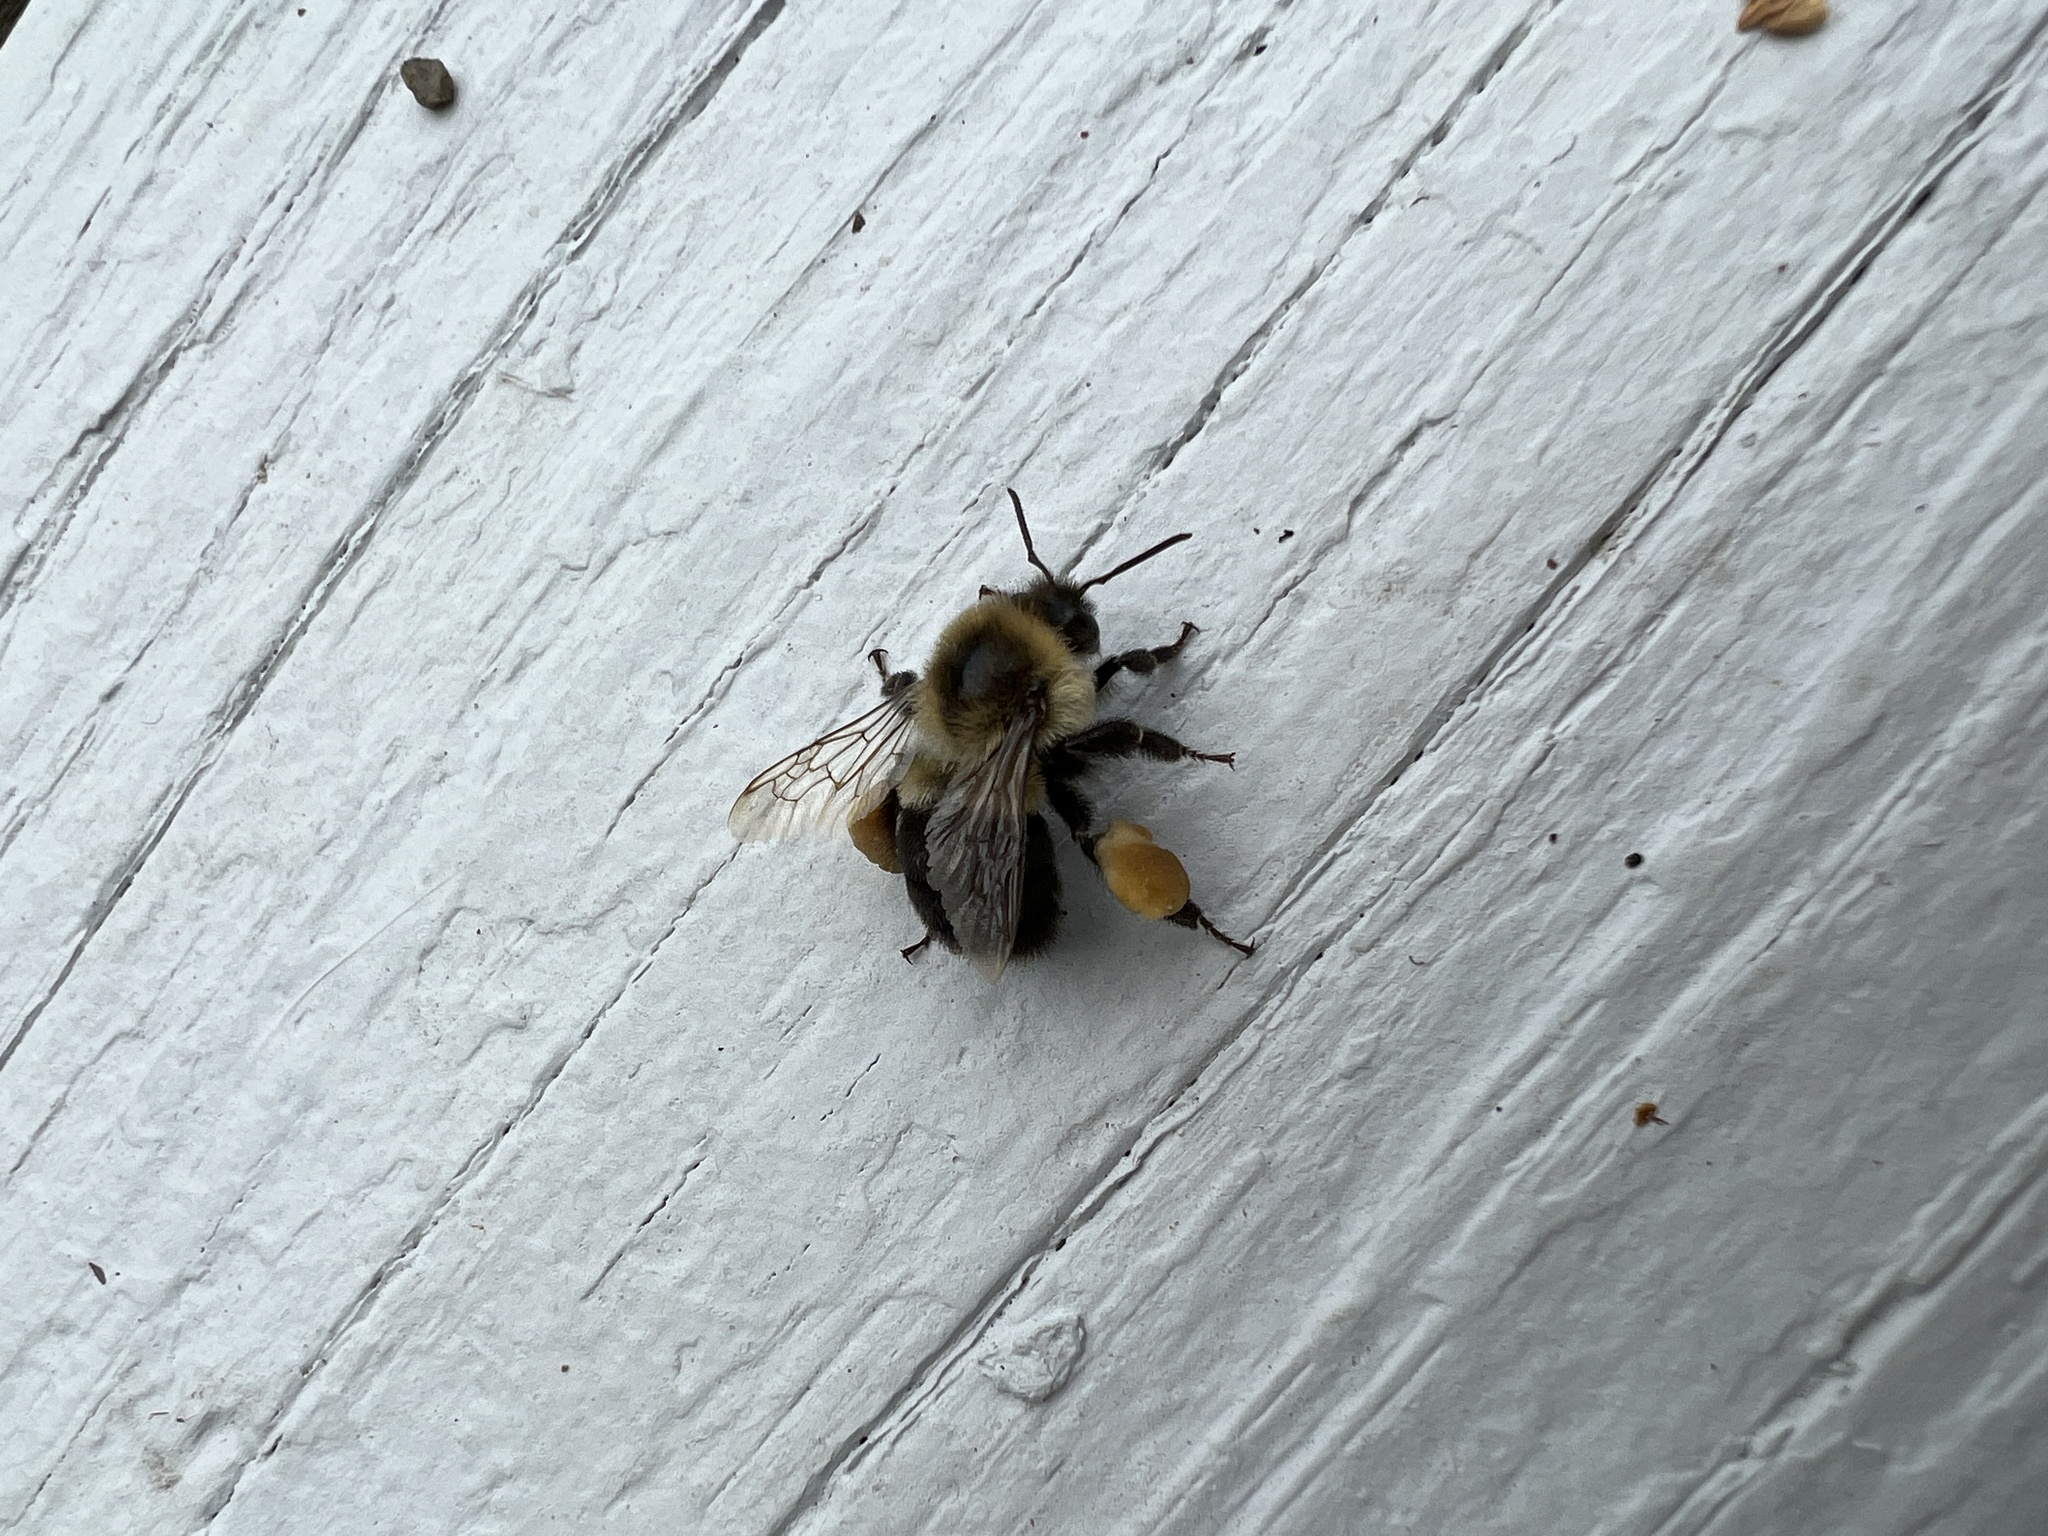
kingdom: Animalia
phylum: Arthropoda
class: Insecta
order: Hymenoptera
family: Apidae
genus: Bombus
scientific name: Bombus impatiens
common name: Common eastern bumble bee
